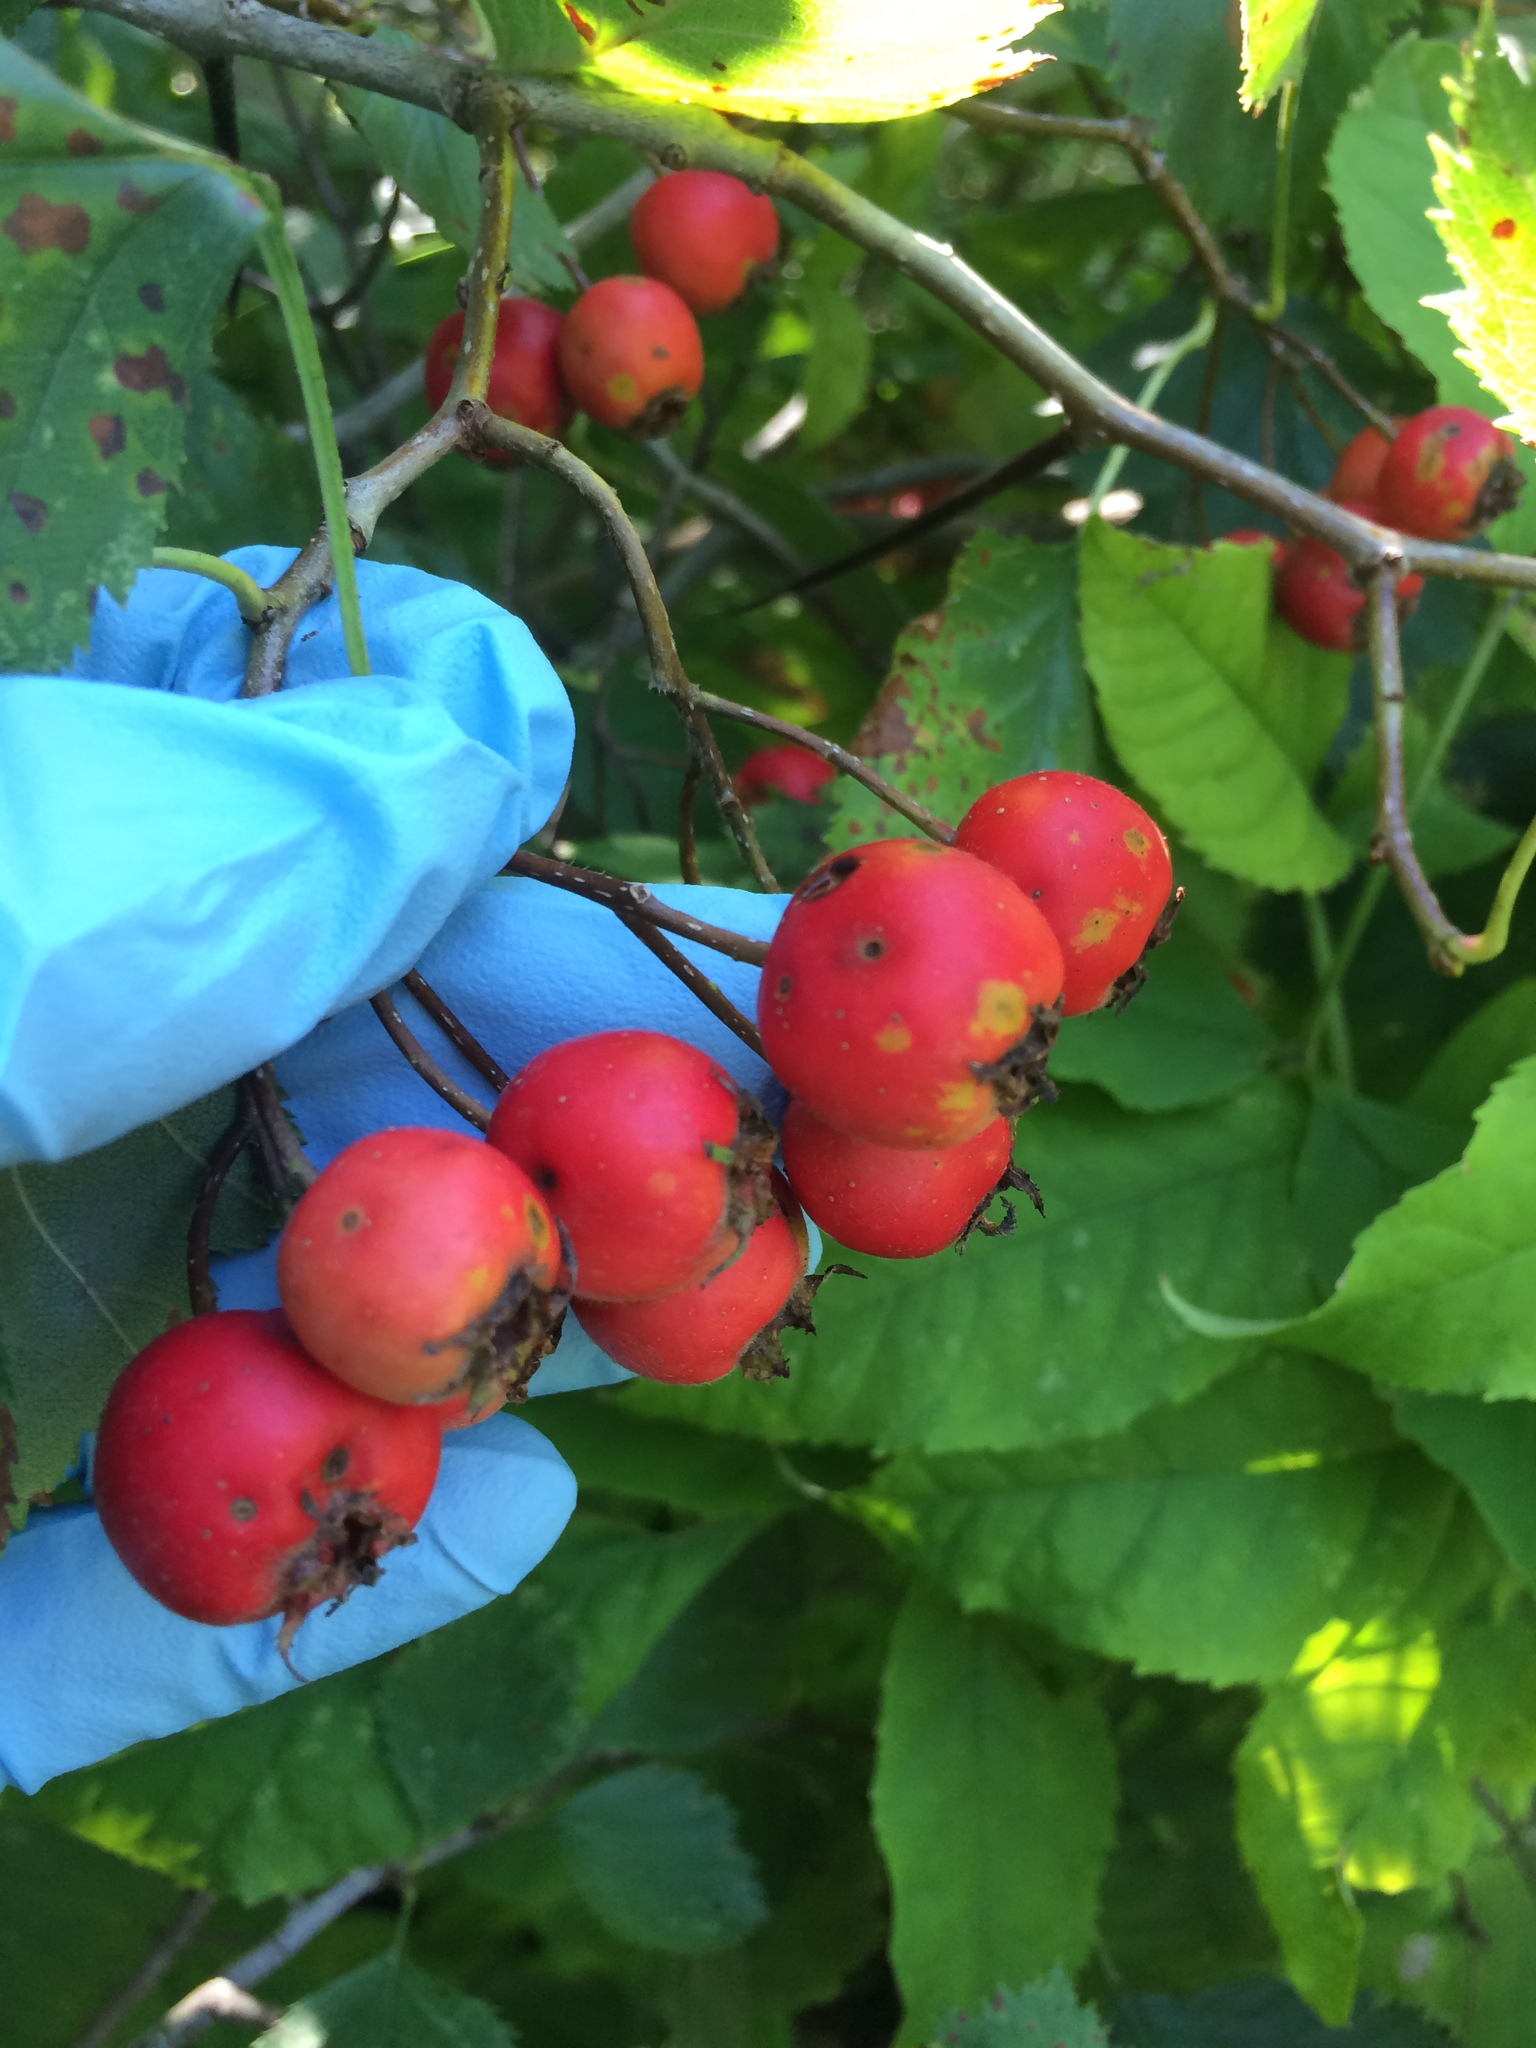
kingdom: Plantae
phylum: Tracheophyta
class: Magnoliopsida
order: Rosales
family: Rosaceae
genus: Crataegus
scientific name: Crataegus submollis
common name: Hairy cockspurthorn
